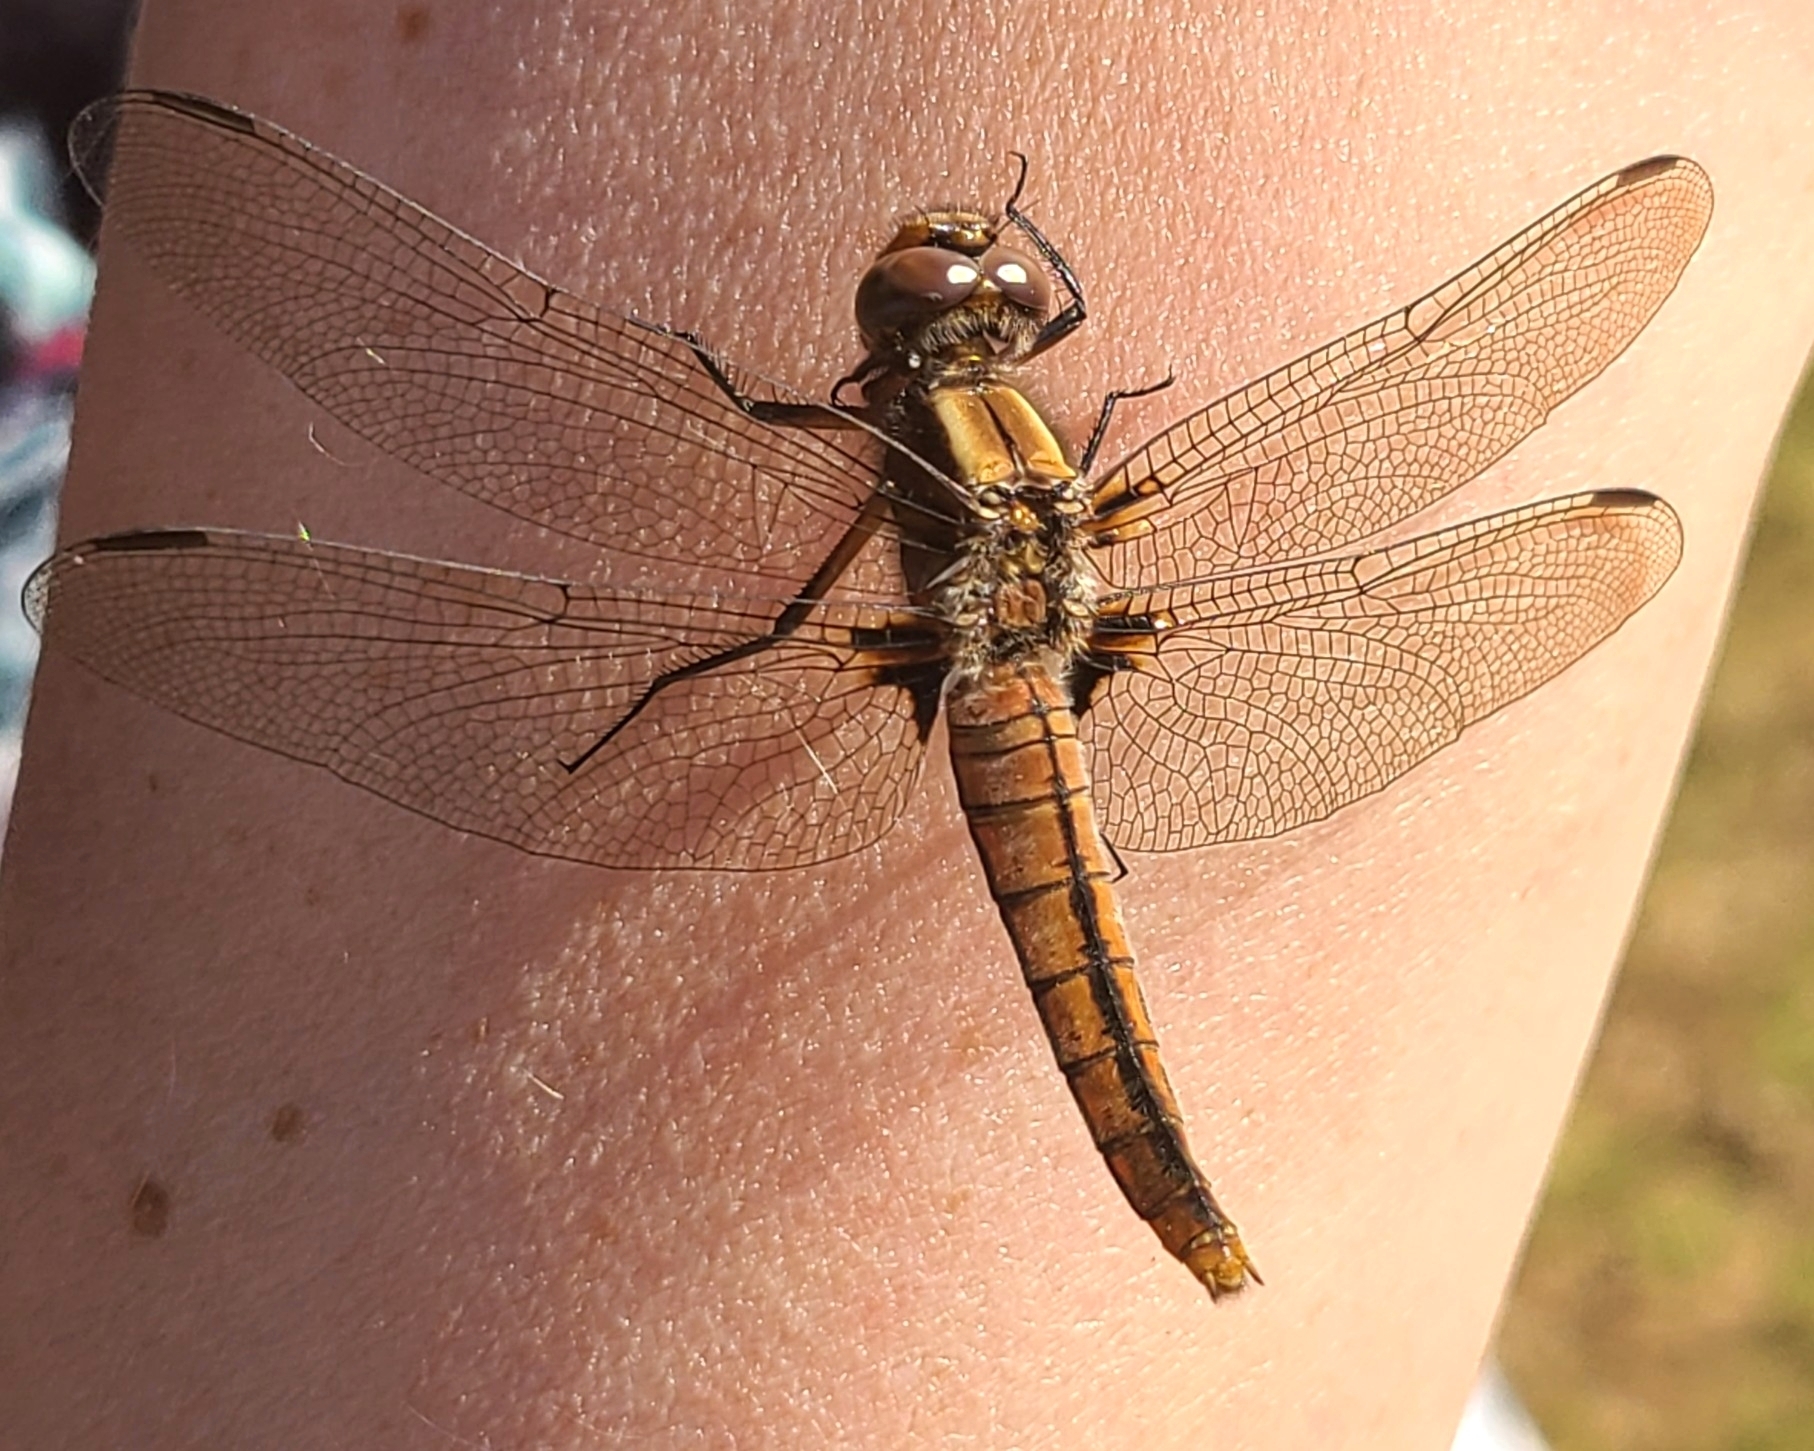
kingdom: Animalia
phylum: Arthropoda
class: Insecta
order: Odonata
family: Libellulidae
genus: Ladona
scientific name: Ladona julia
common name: Chalk-fronted corporal
